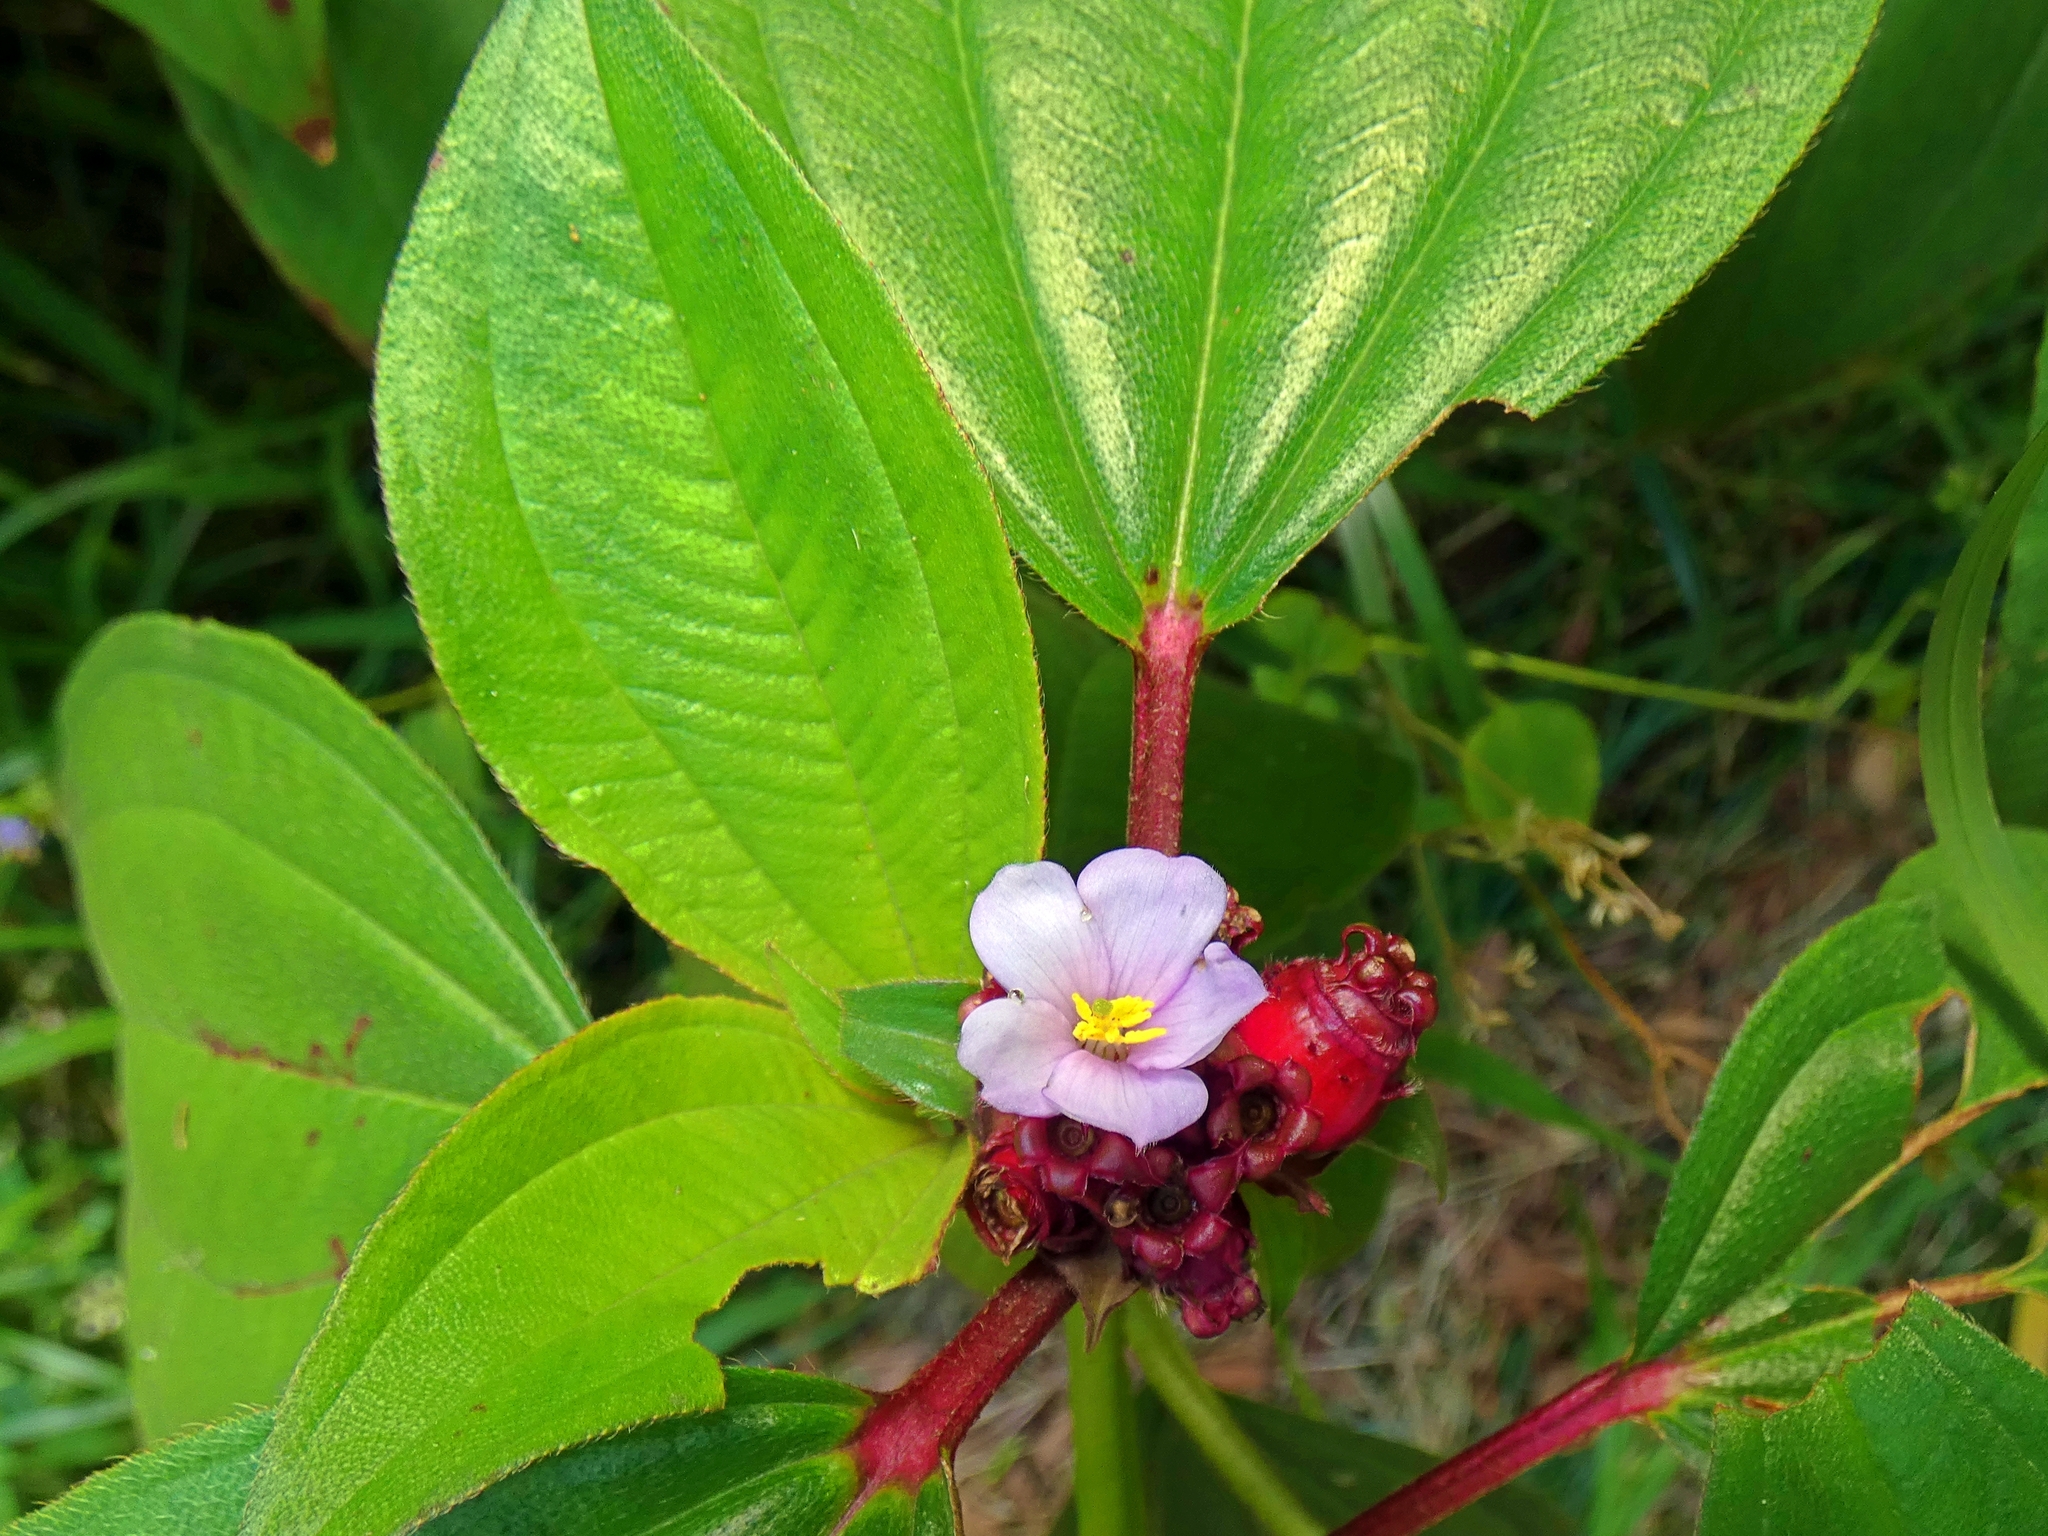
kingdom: Plantae
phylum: Tracheophyta
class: Magnoliopsida
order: Myrtales
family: Melastomataceae
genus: Tristemma
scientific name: Tristemma mauritianum
